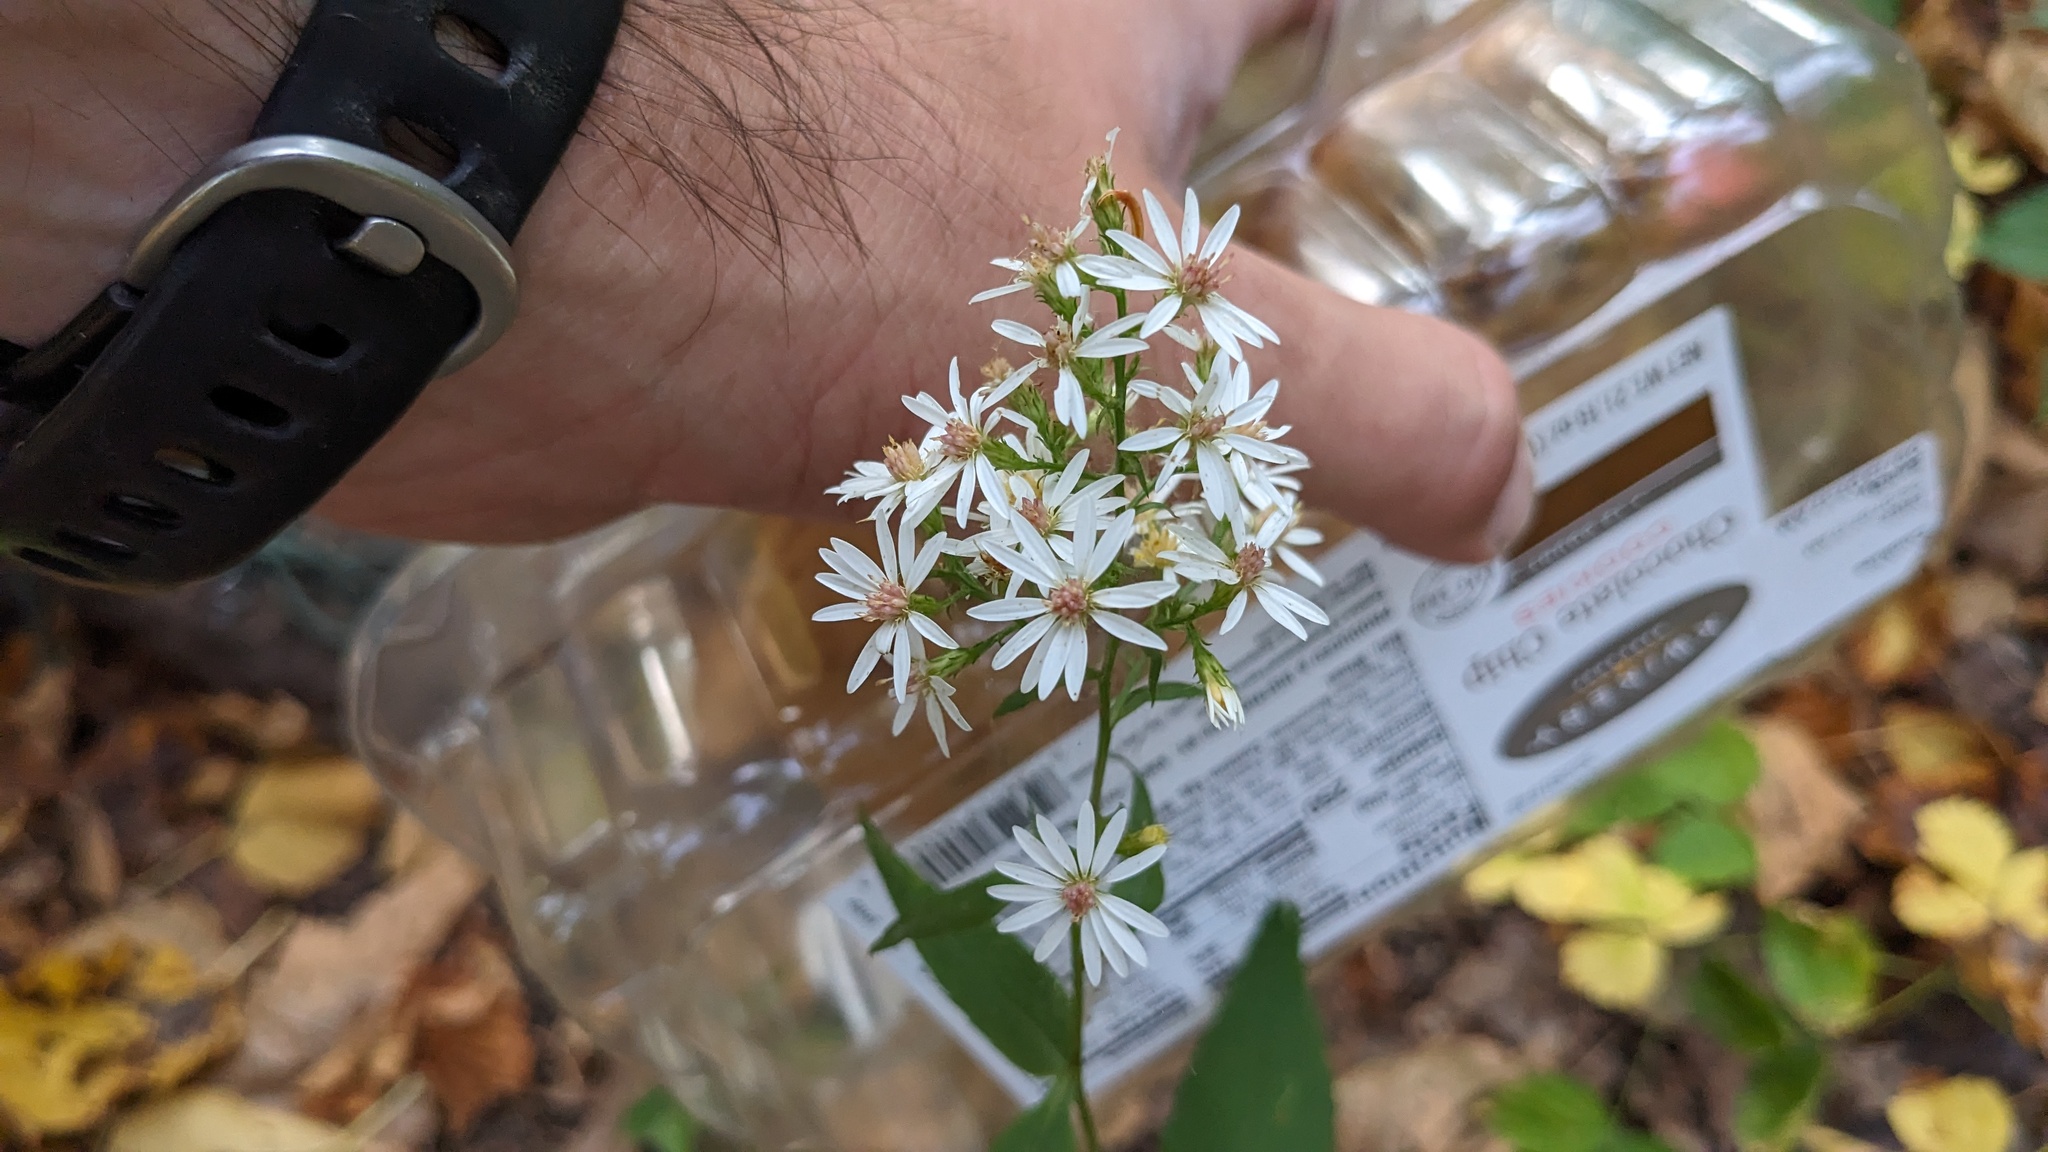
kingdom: Plantae
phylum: Tracheophyta
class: Magnoliopsida
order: Asterales
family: Asteraceae
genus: Symphyotrichum
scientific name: Symphyotrichum urophyllum
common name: Arrow-leaved aster
